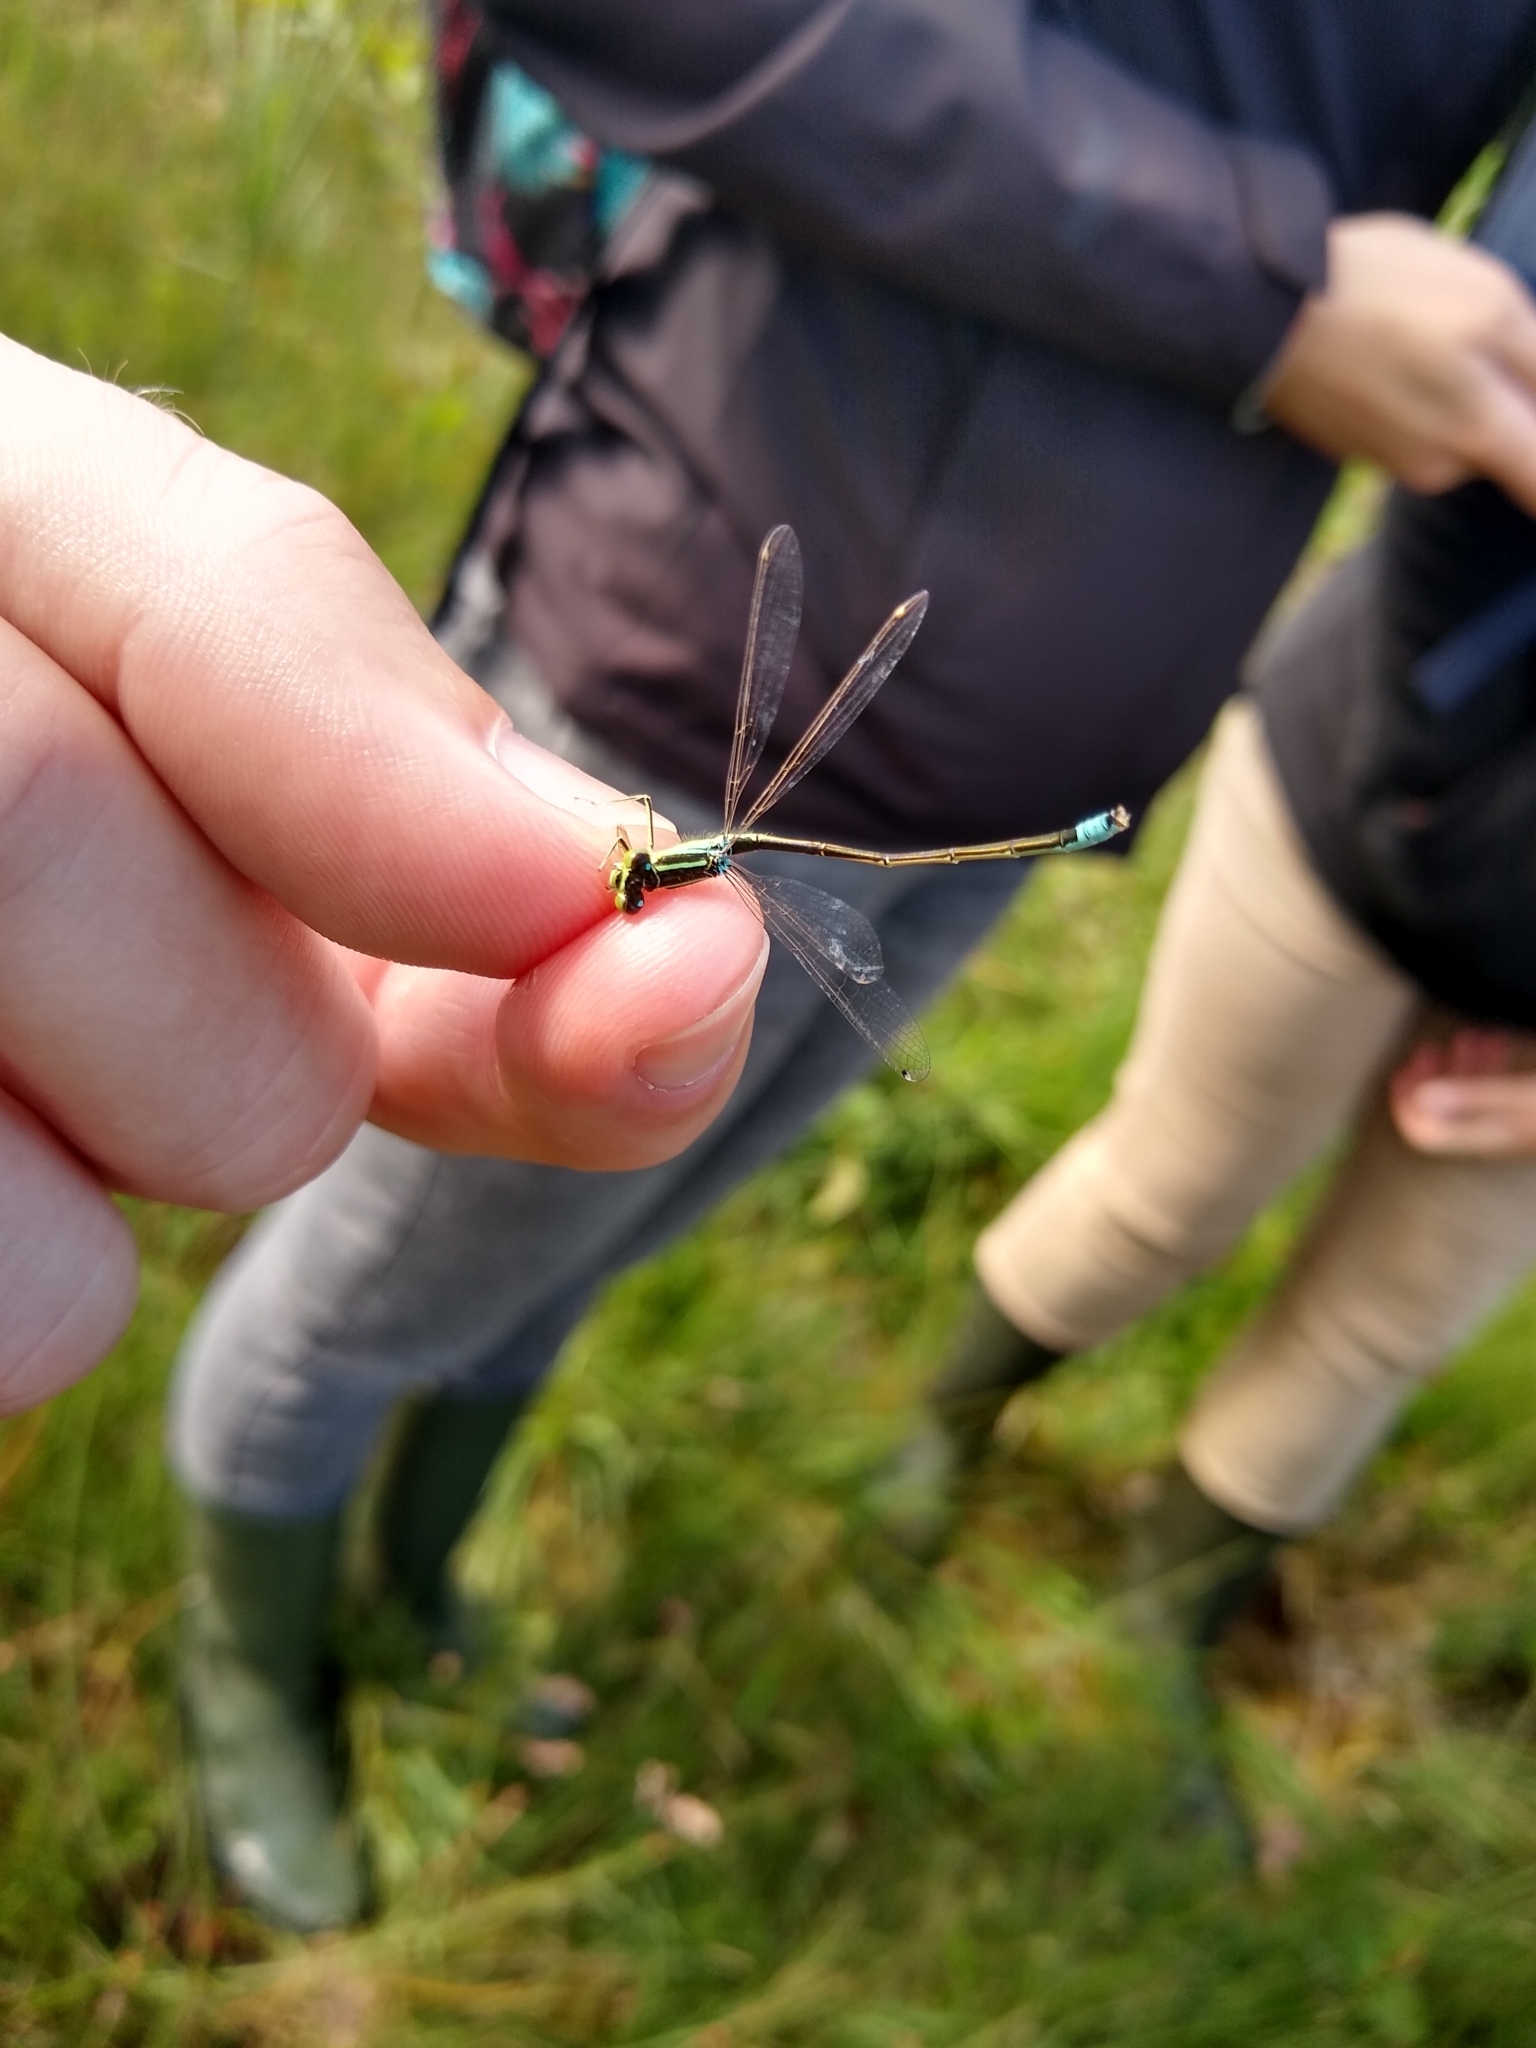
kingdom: Animalia
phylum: Arthropoda
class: Insecta
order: Odonata
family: Coenagrionidae
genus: Ischnura
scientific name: Ischnura pumilio
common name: Scarce blue-tailed damselfly
